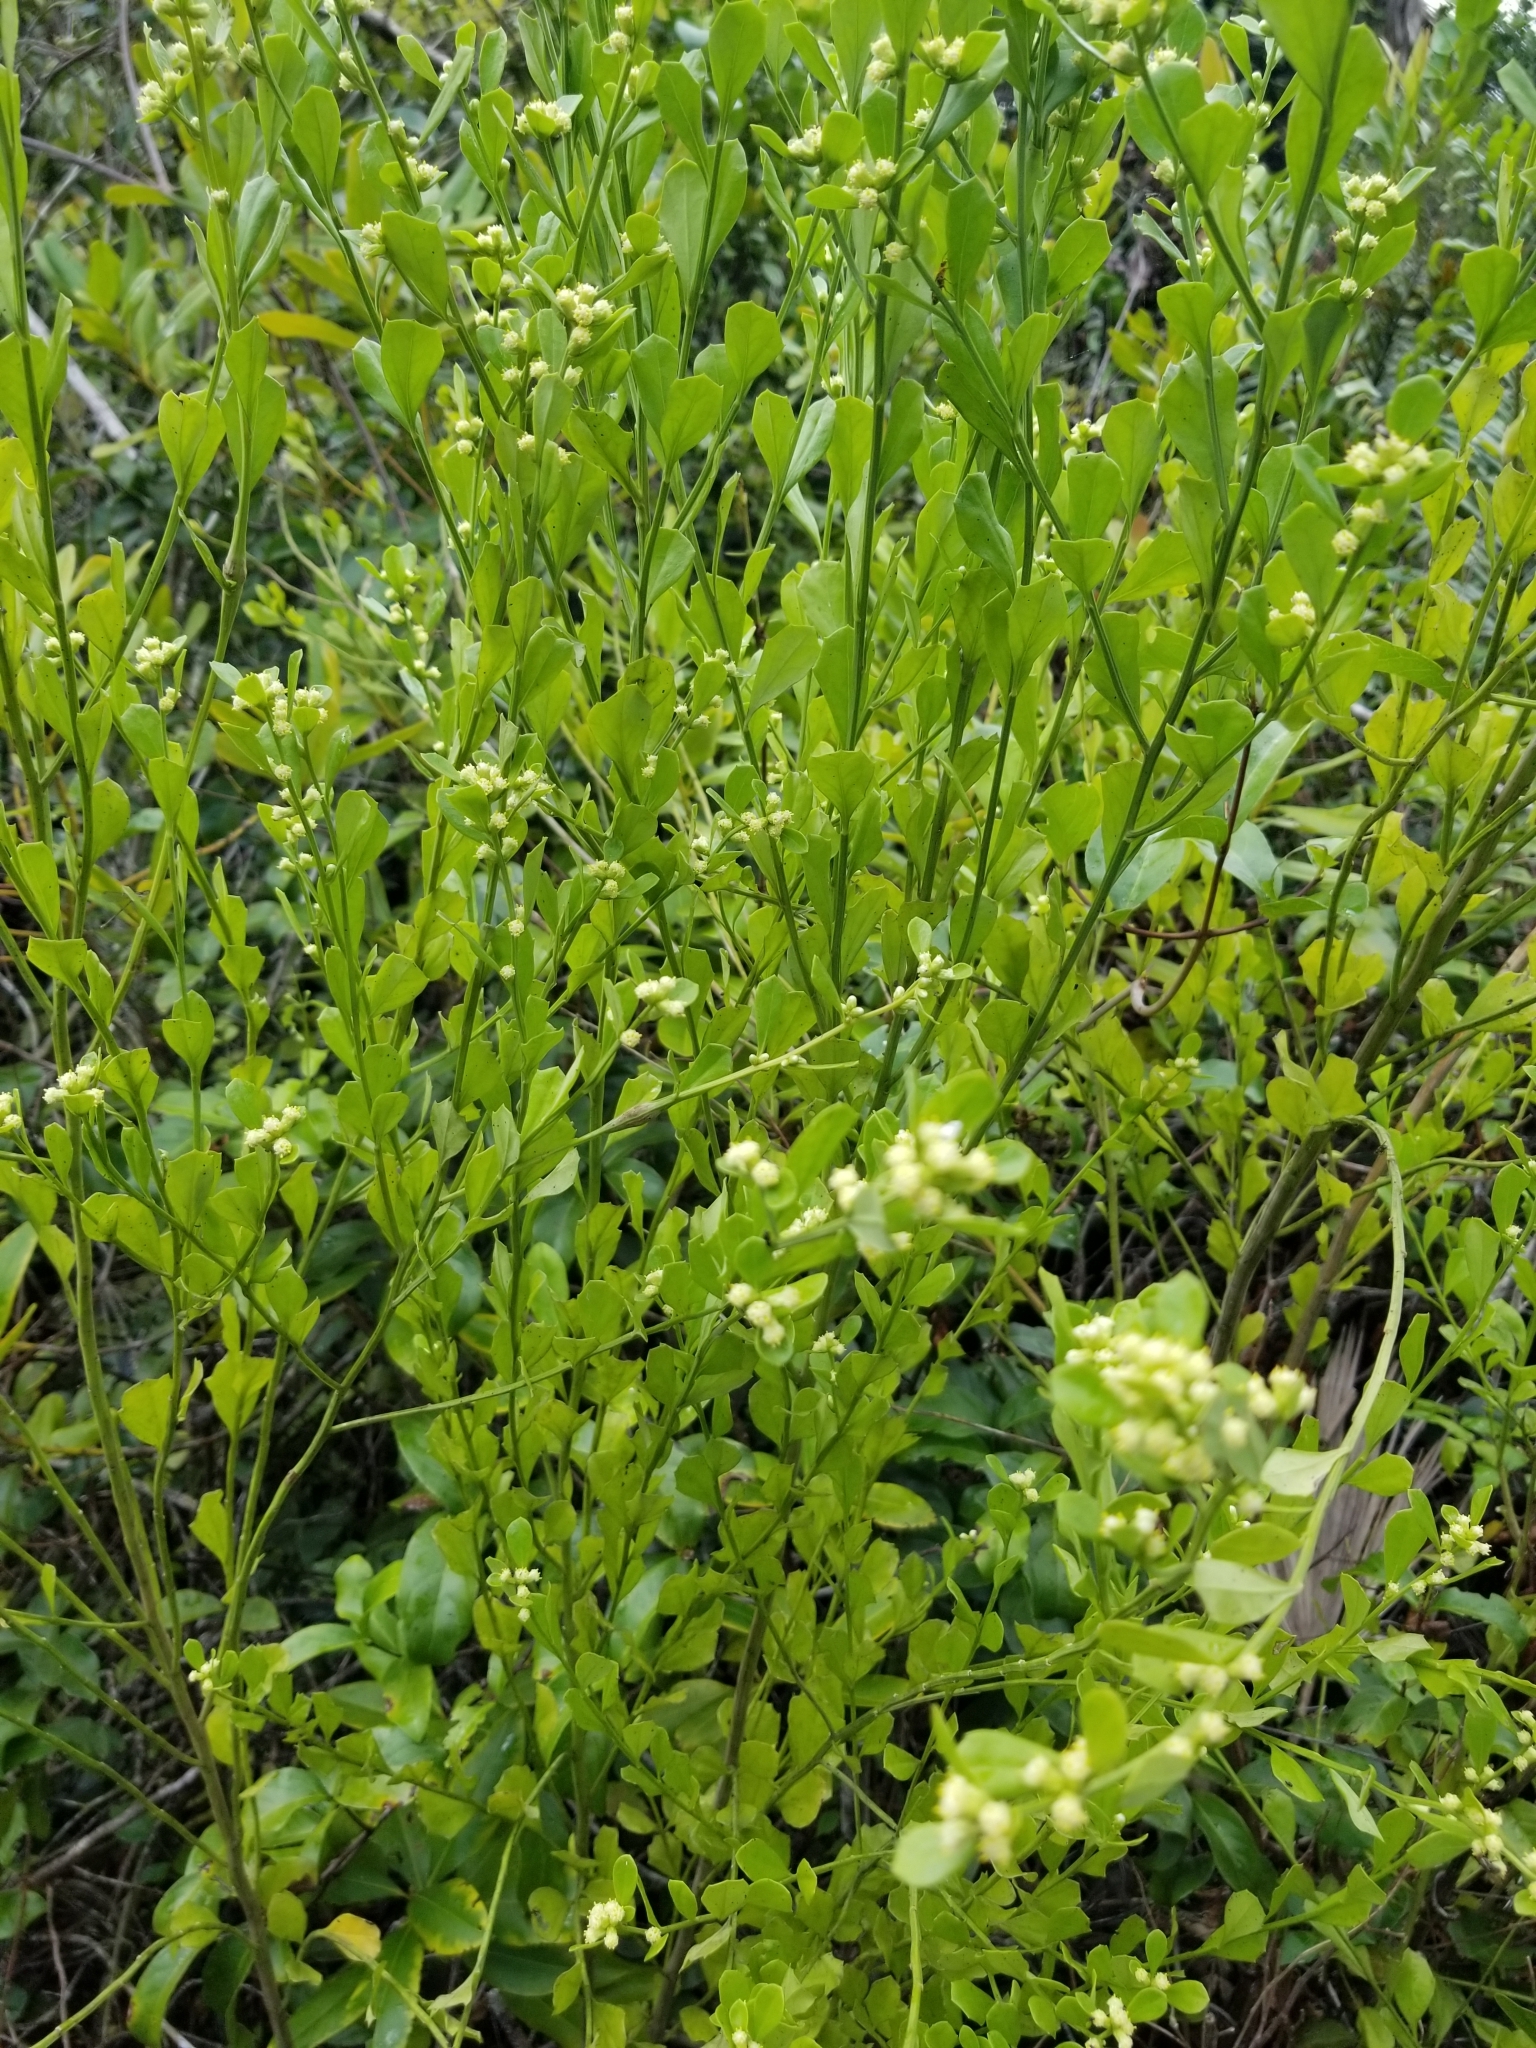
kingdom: Plantae
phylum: Tracheophyta
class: Magnoliopsida
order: Asterales
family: Asteraceae
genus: Baccharis
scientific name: Baccharis glomeruliflora
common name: Silverling groundsel bush
